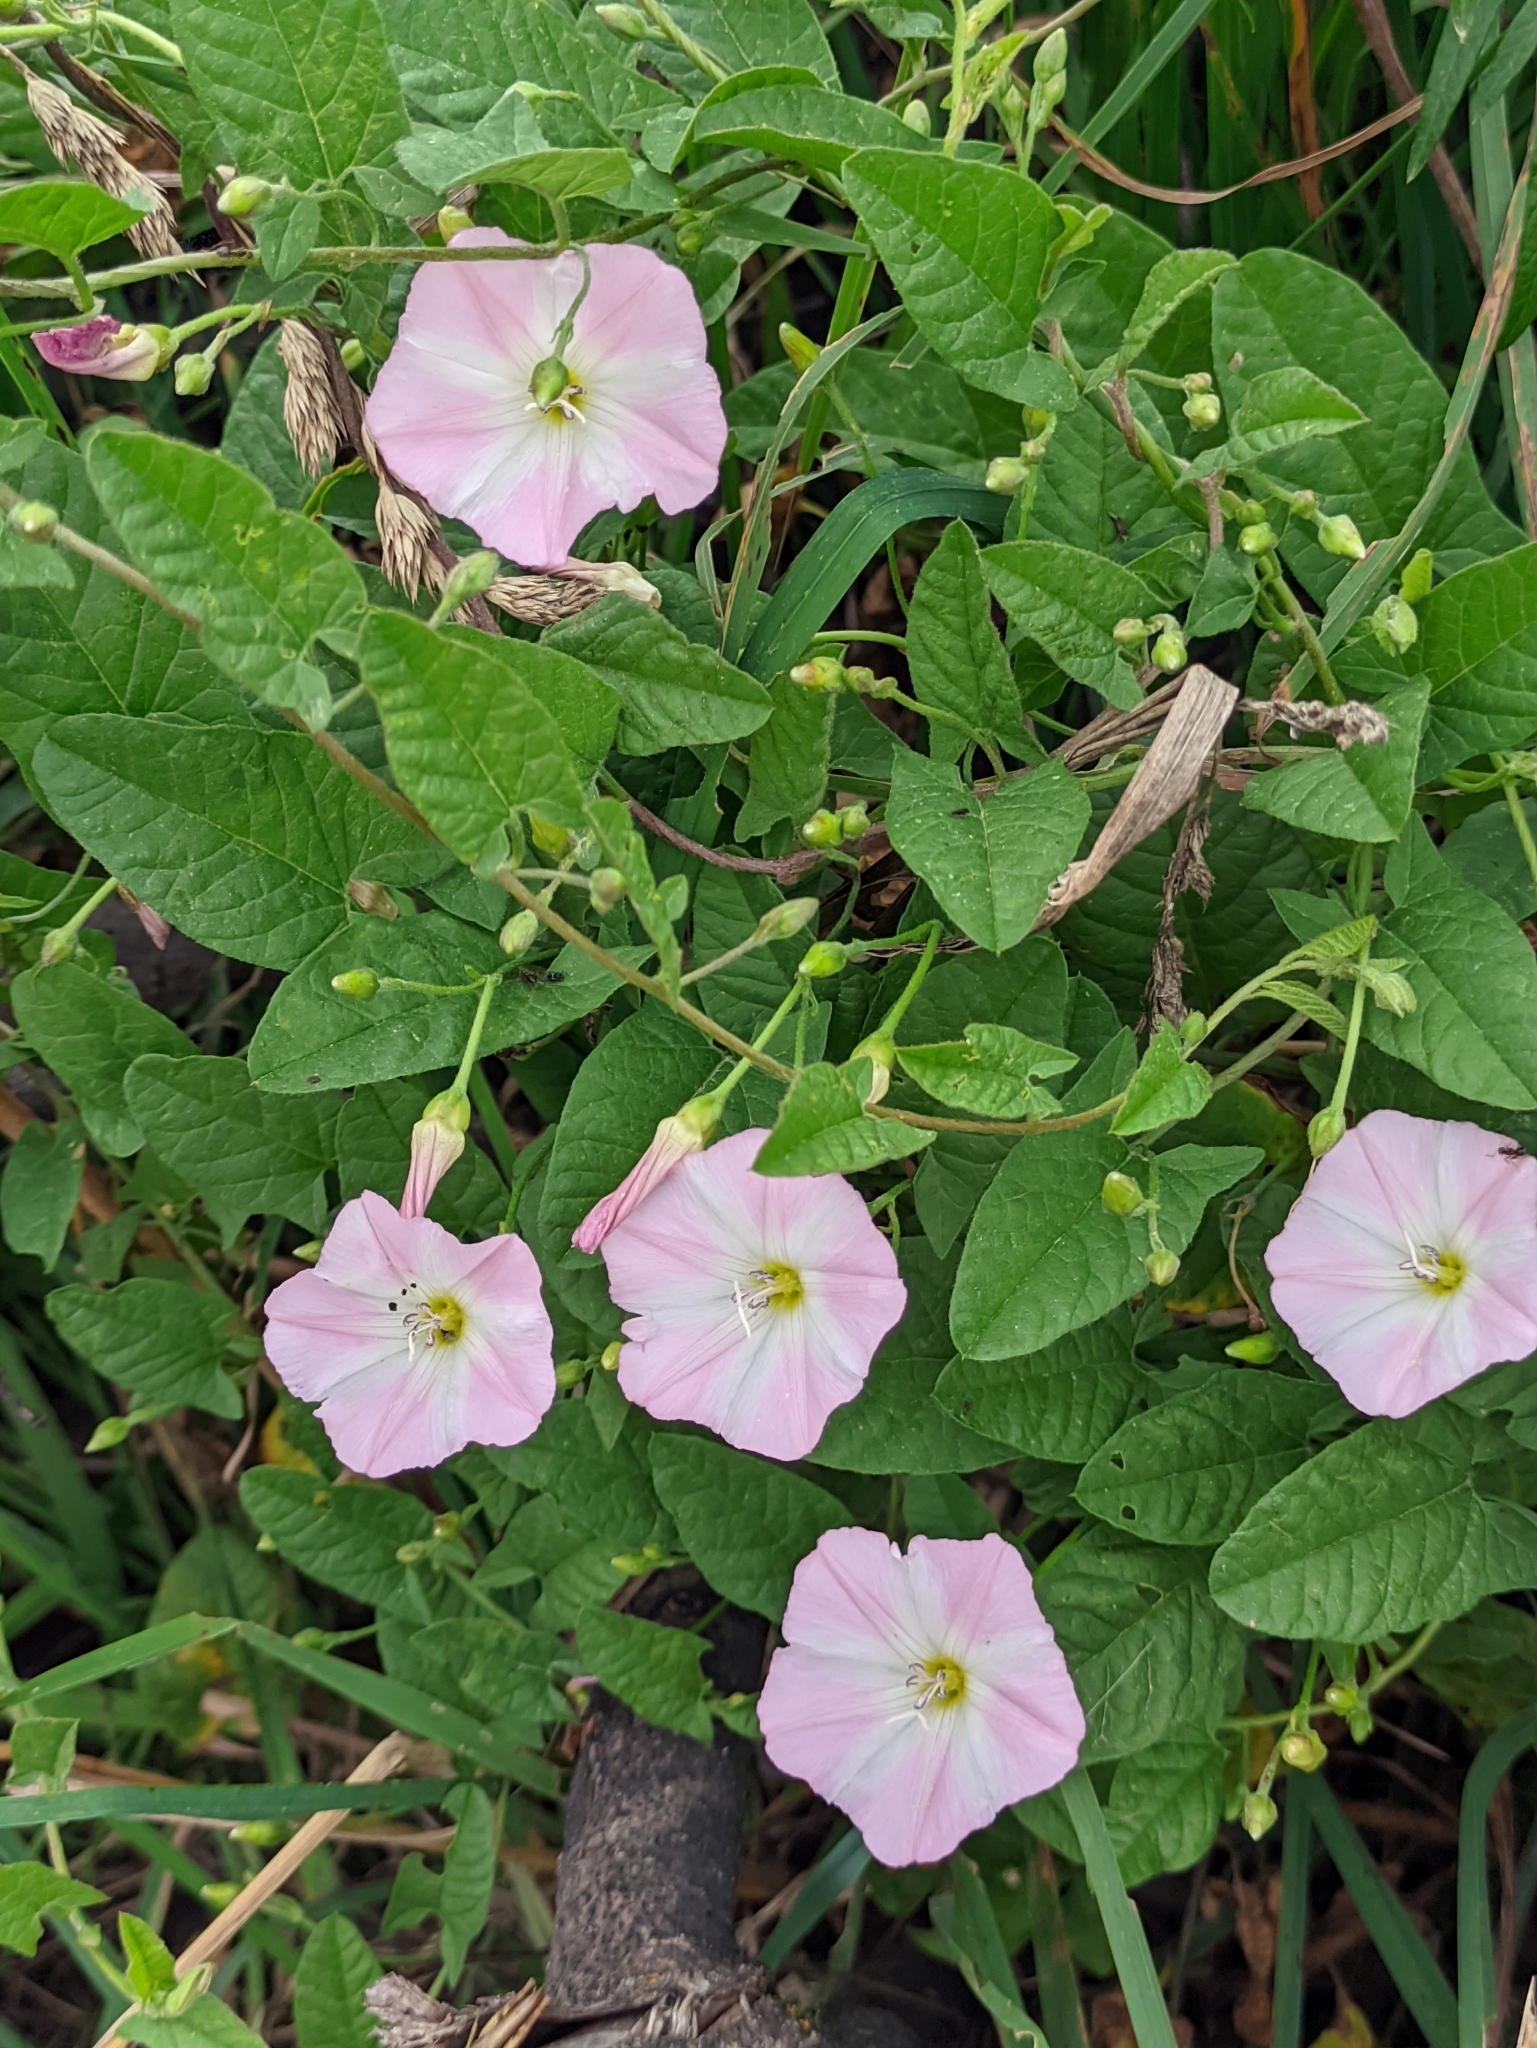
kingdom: Plantae
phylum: Tracheophyta
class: Magnoliopsida
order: Solanales
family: Convolvulaceae
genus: Convolvulus
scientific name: Convolvulus arvensis
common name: Field bindweed
